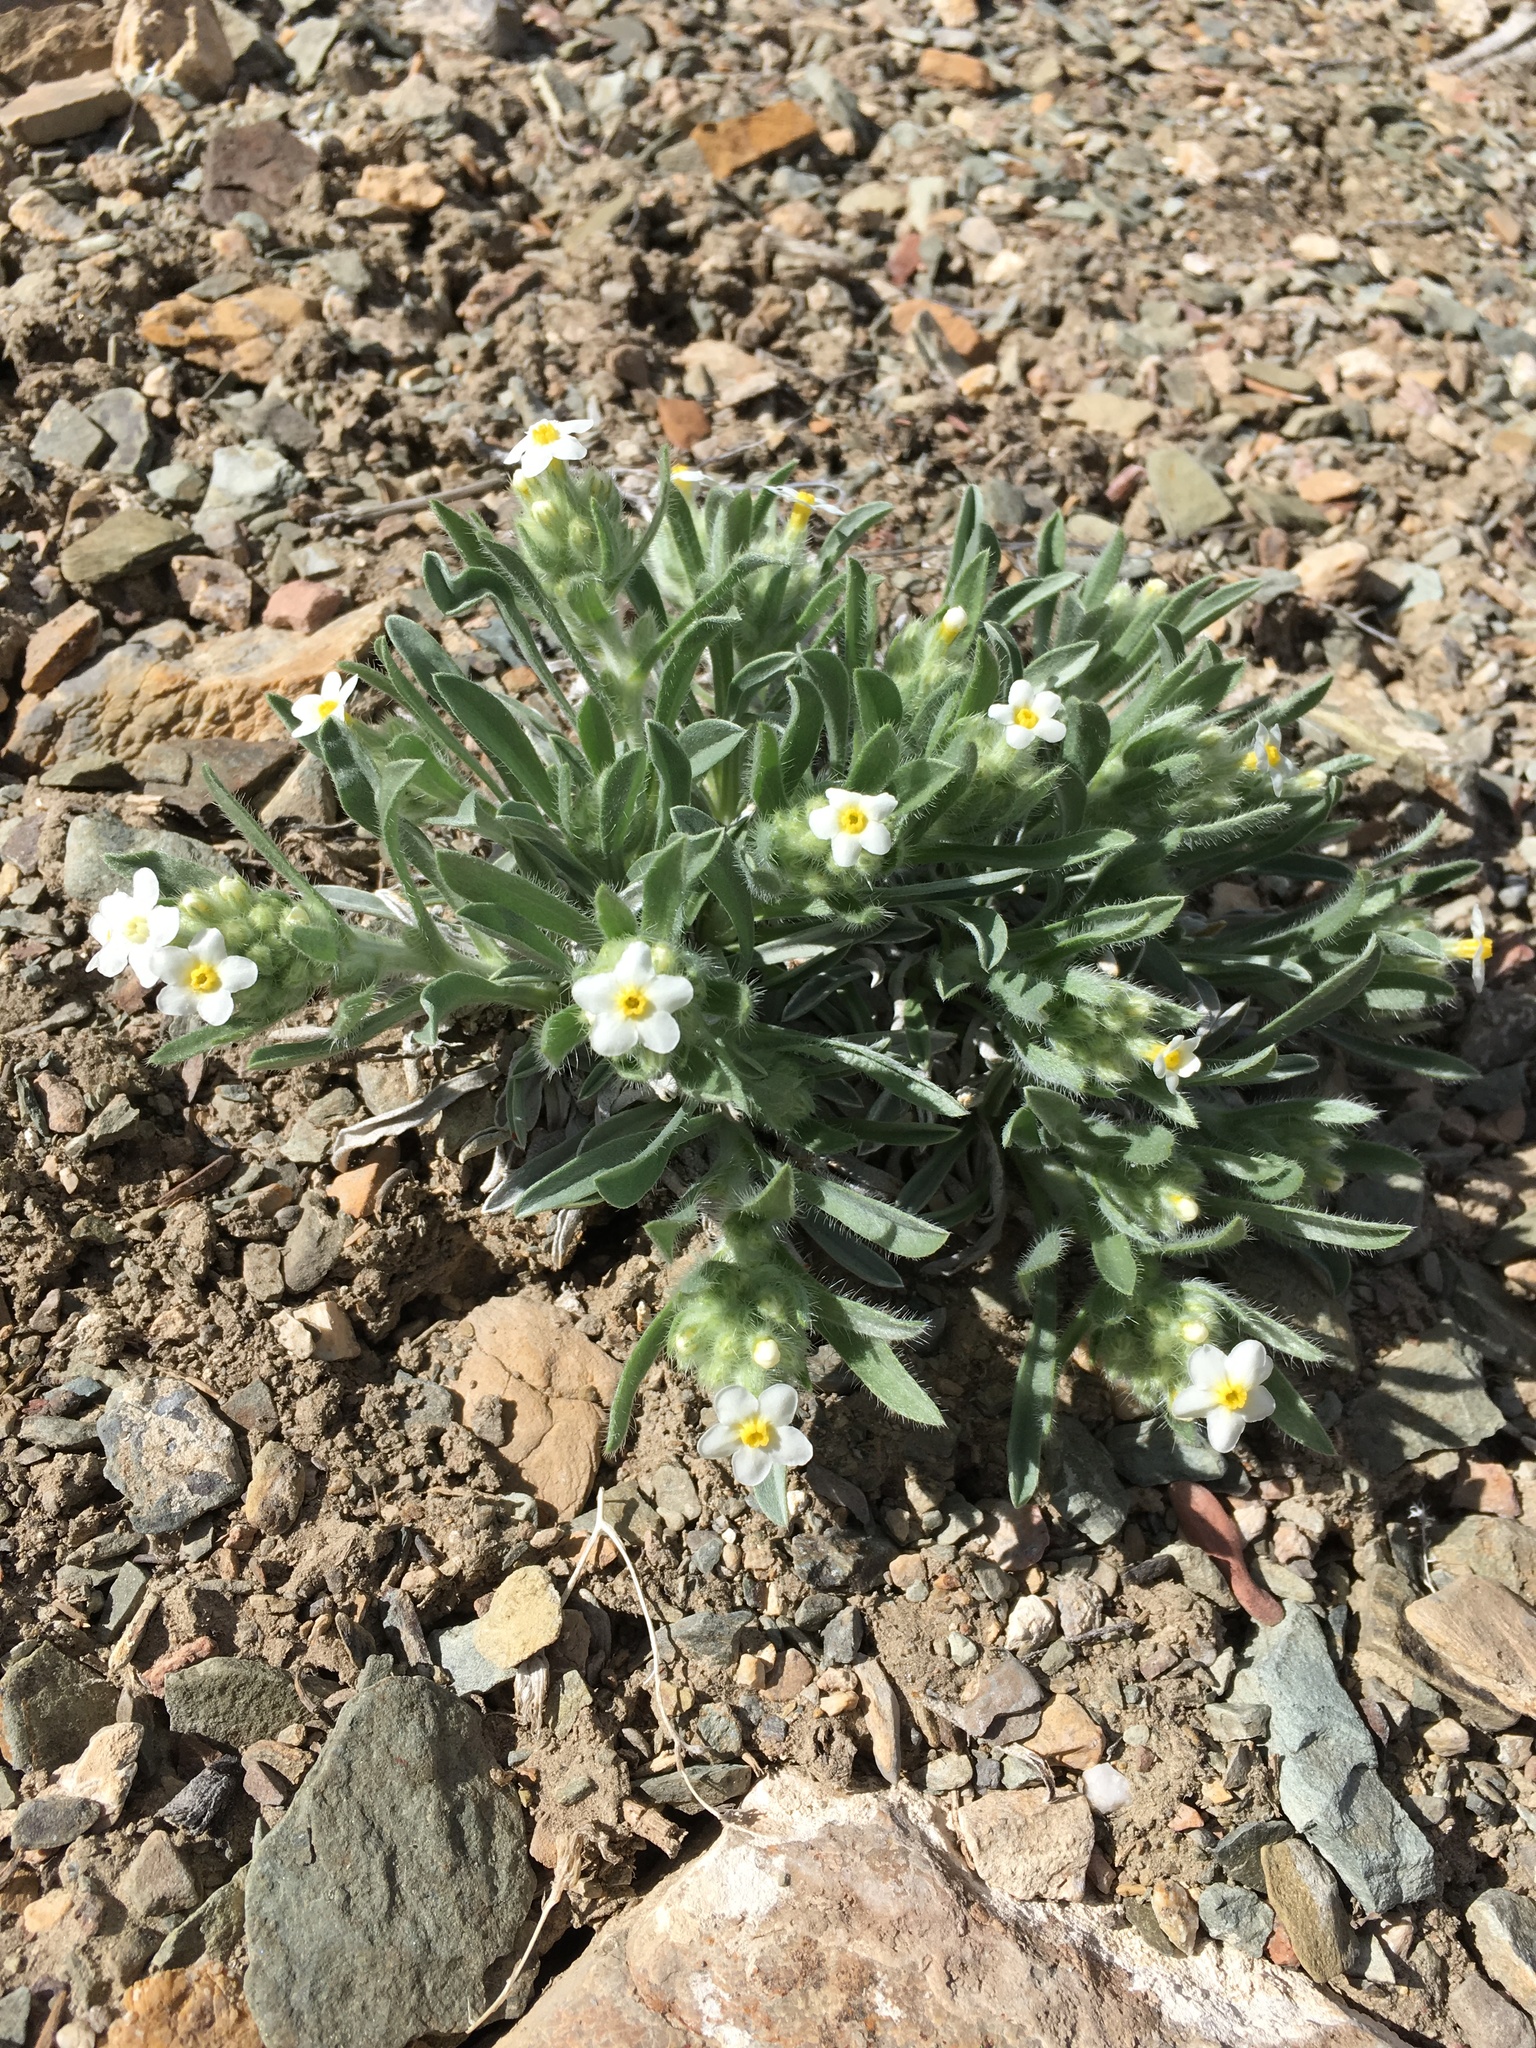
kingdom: Plantae
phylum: Tracheophyta
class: Magnoliopsida
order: Boraginales
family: Boraginaceae
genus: Oreocarya
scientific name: Oreocarya flavoculata
